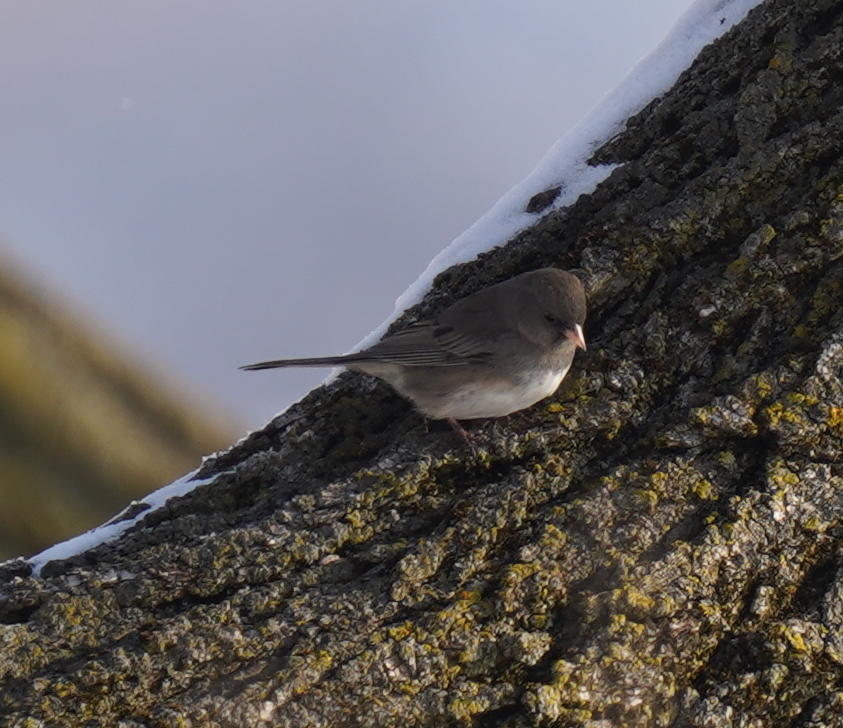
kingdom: Animalia
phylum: Chordata
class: Aves
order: Passeriformes
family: Passerellidae
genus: Junco
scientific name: Junco hyemalis
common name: Dark-eyed junco
